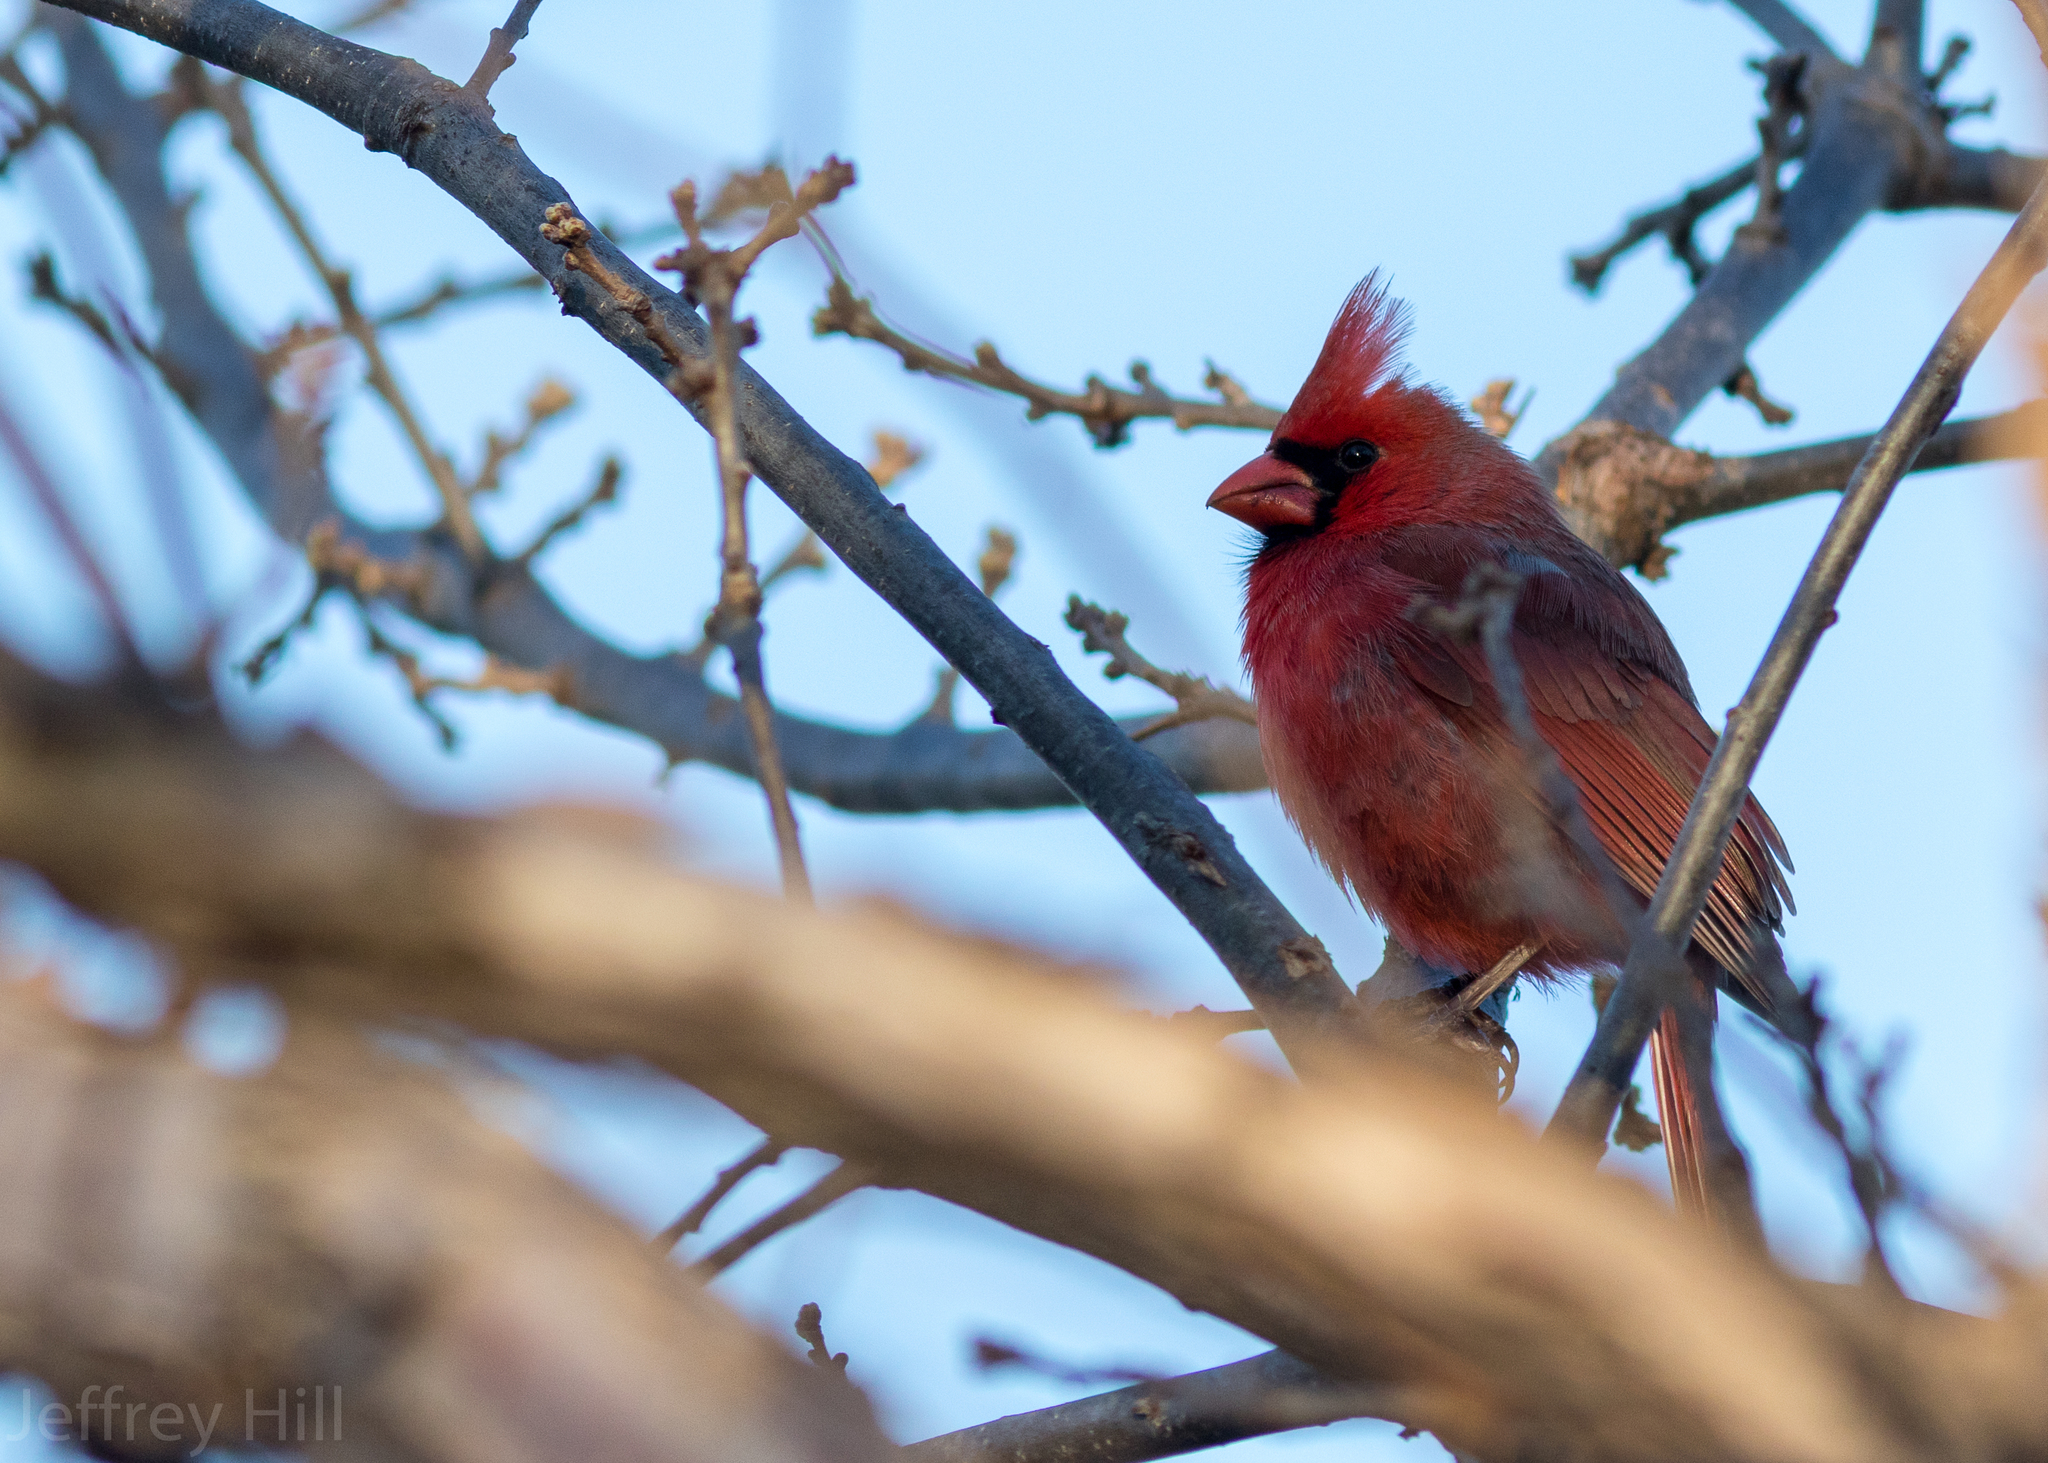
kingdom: Animalia
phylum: Chordata
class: Aves
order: Passeriformes
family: Cardinalidae
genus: Cardinalis
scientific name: Cardinalis cardinalis
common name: Northern cardinal
